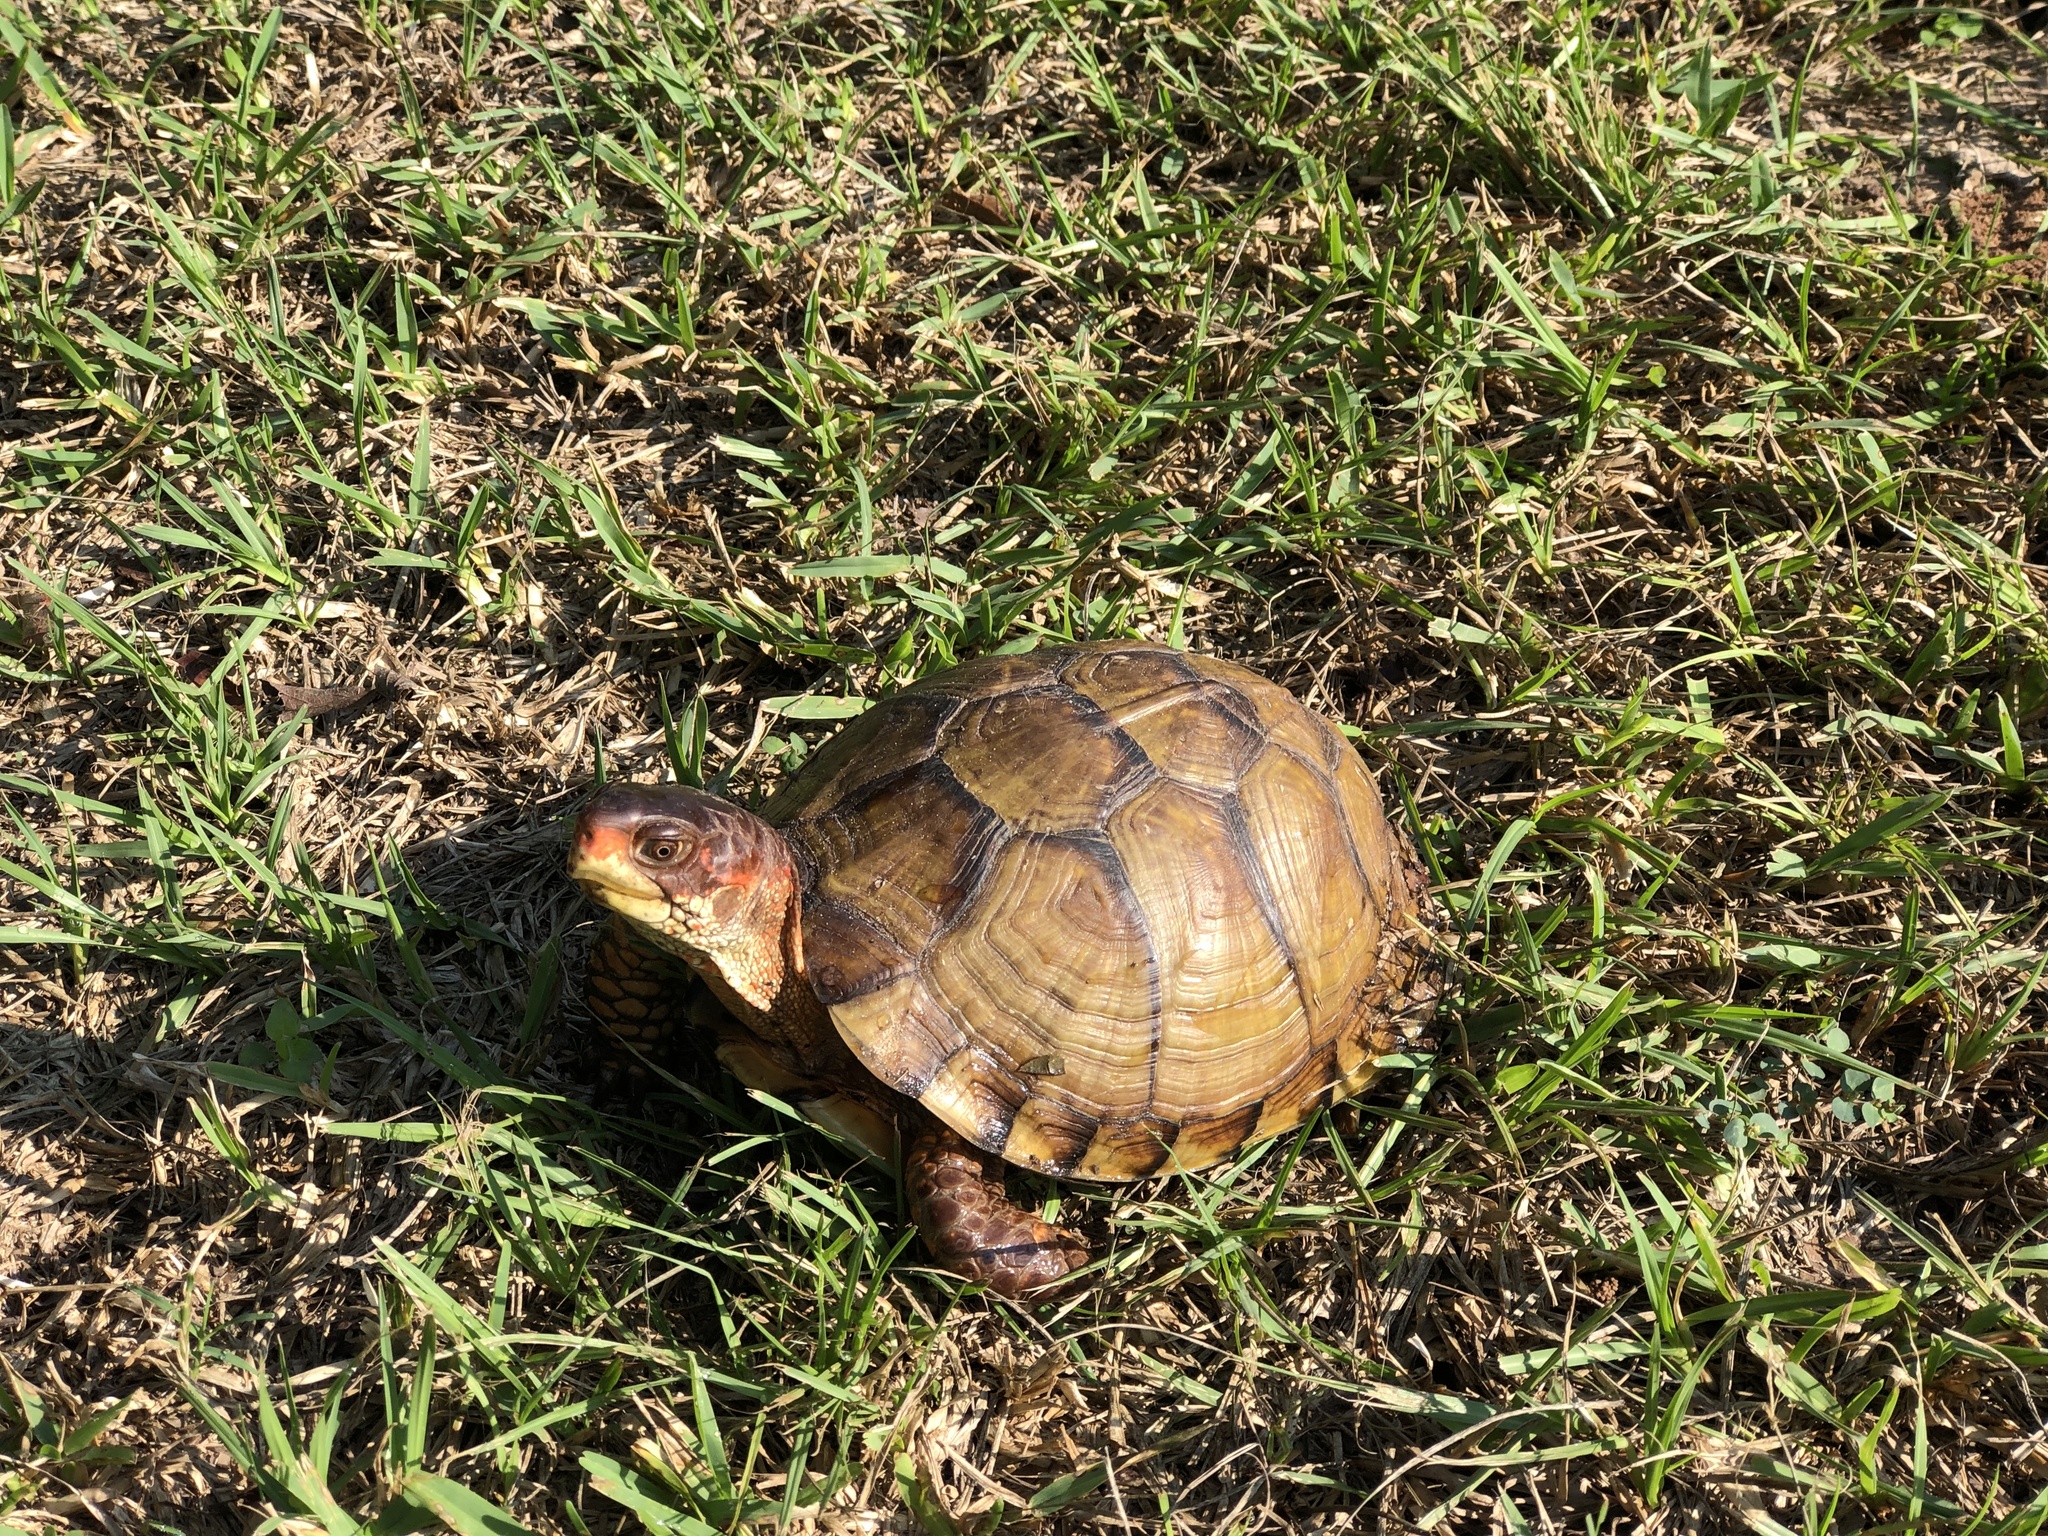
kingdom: Animalia
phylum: Chordata
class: Testudines
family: Emydidae
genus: Terrapene
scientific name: Terrapene carolina
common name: Common box turtle
